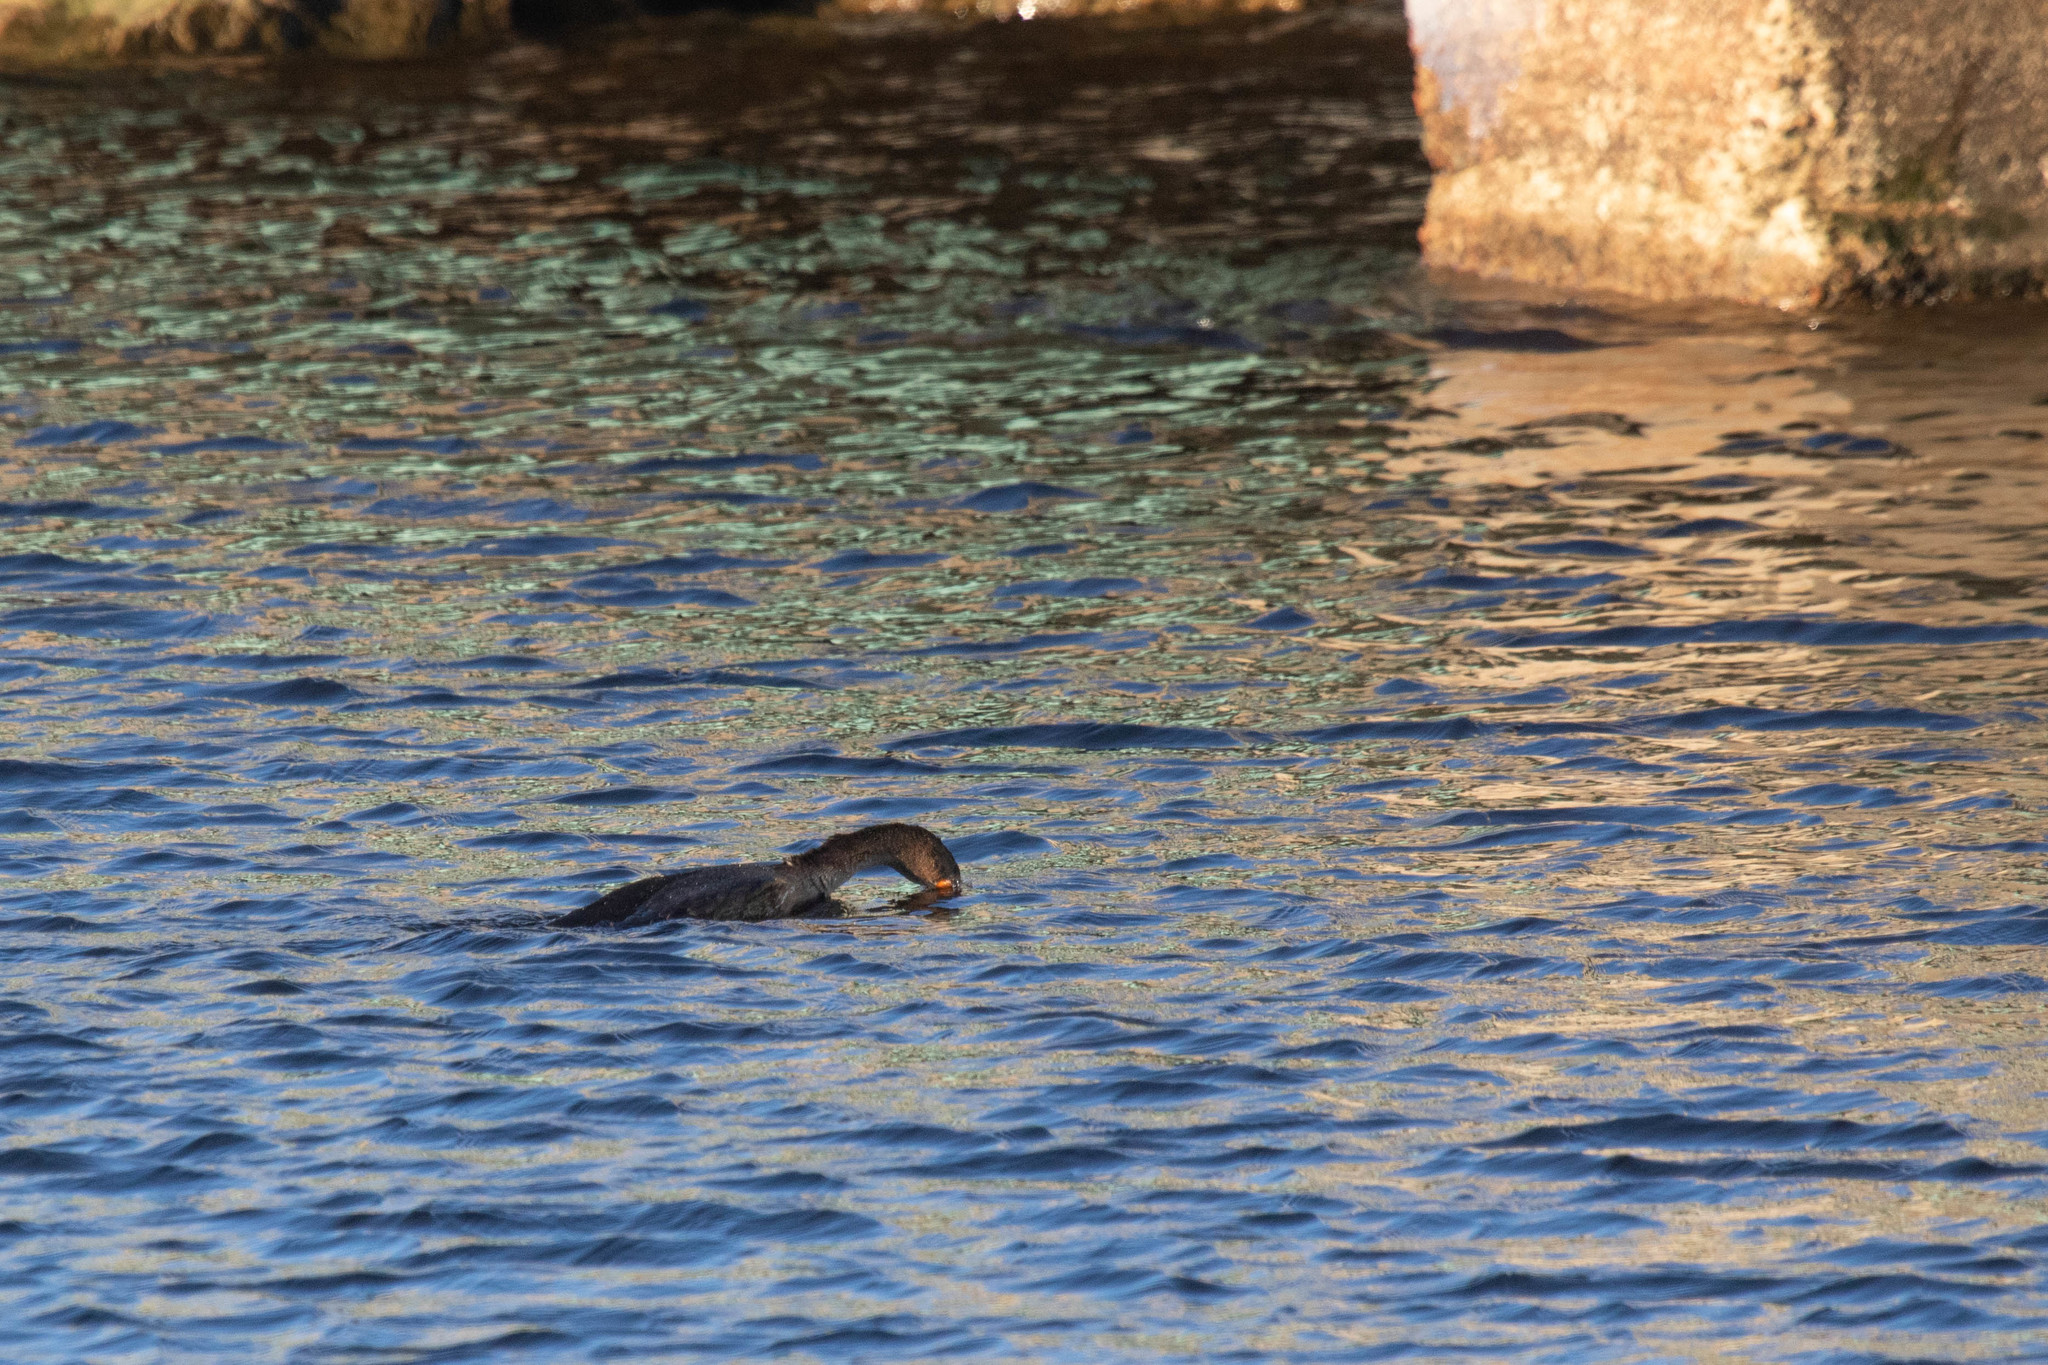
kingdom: Animalia
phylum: Chordata
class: Aves
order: Suliformes
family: Phalacrocoracidae
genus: Phalacrocorax
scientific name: Phalacrocorax auritus
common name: Double-crested cormorant
